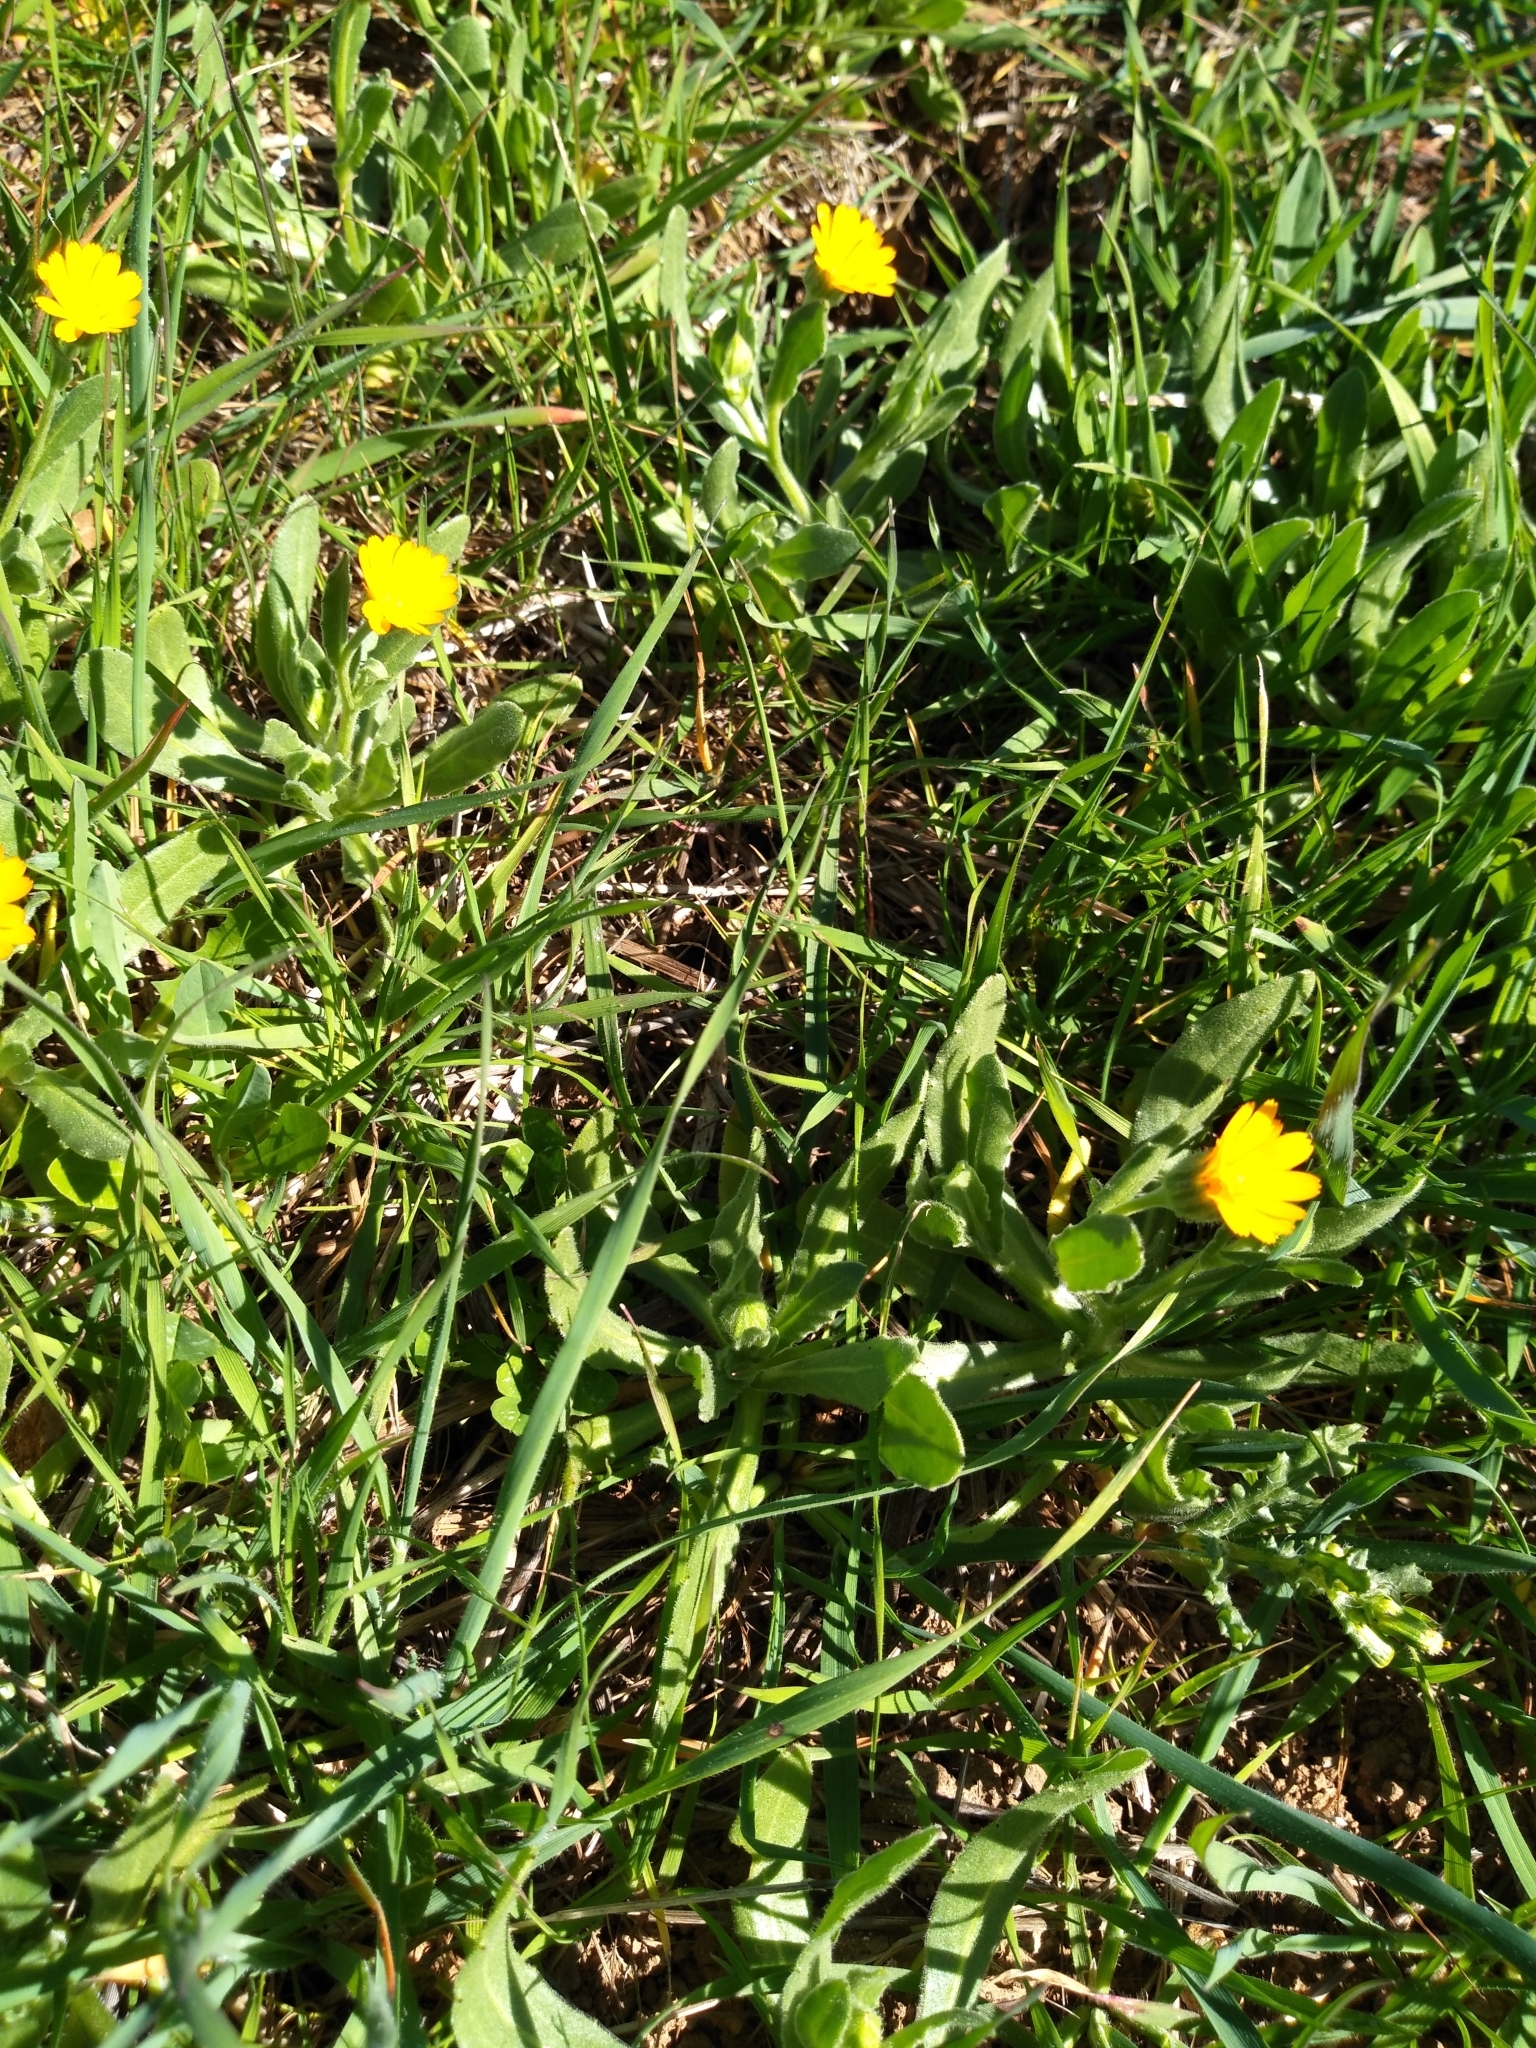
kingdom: Plantae
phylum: Tracheophyta
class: Magnoliopsida
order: Asterales
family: Asteraceae
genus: Calendula
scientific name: Calendula arvensis
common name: Field marigold
